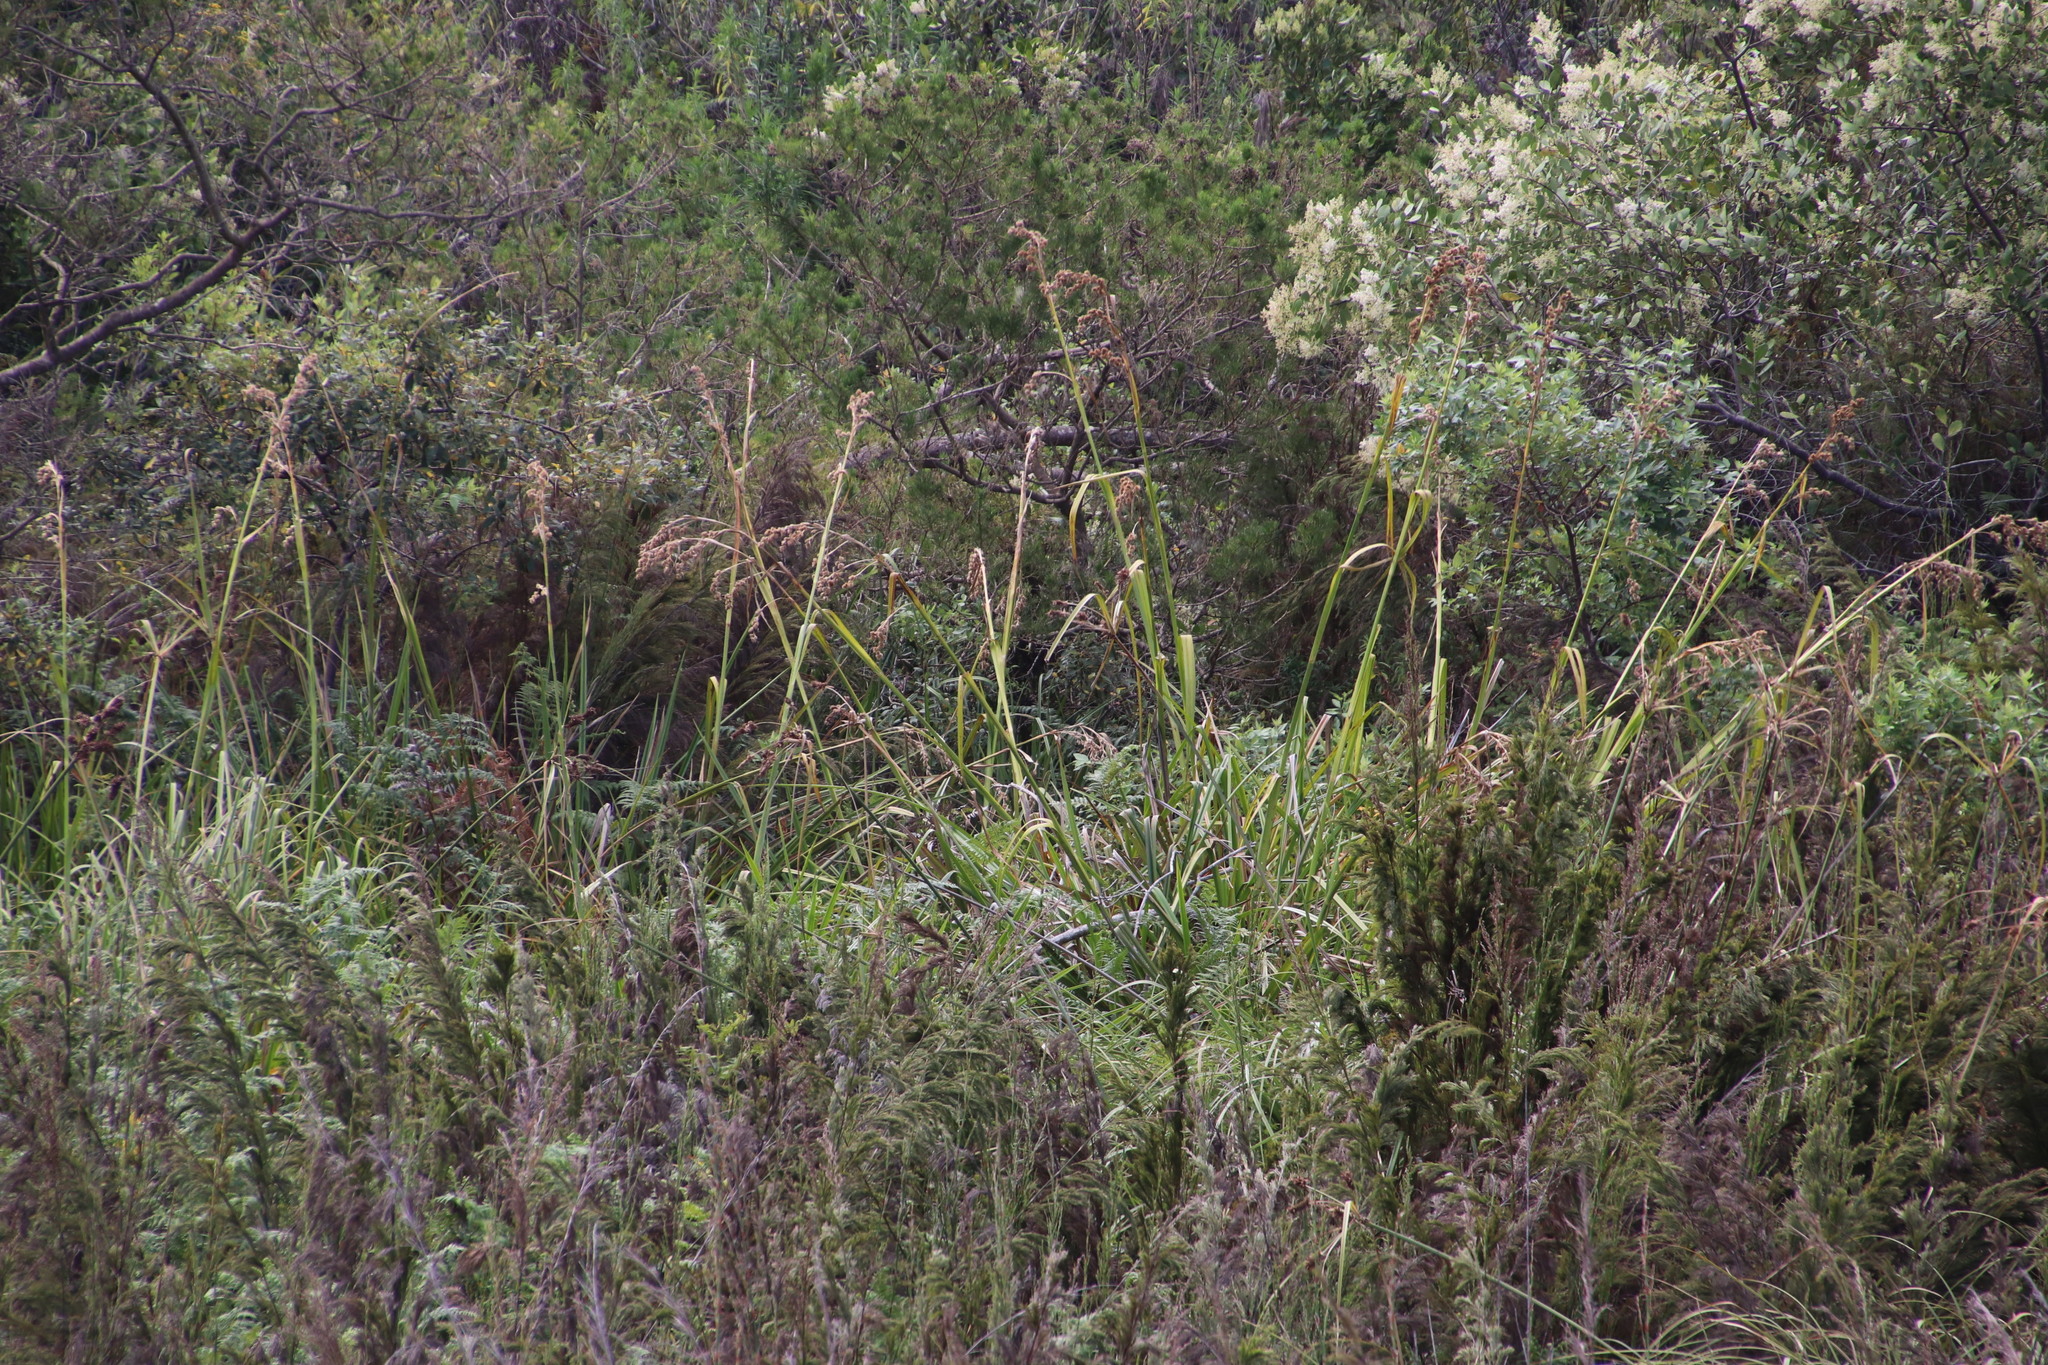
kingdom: Plantae
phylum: Tracheophyta
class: Liliopsida
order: Poales
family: Cyperaceae
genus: Carpha
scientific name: Carpha glomerata
